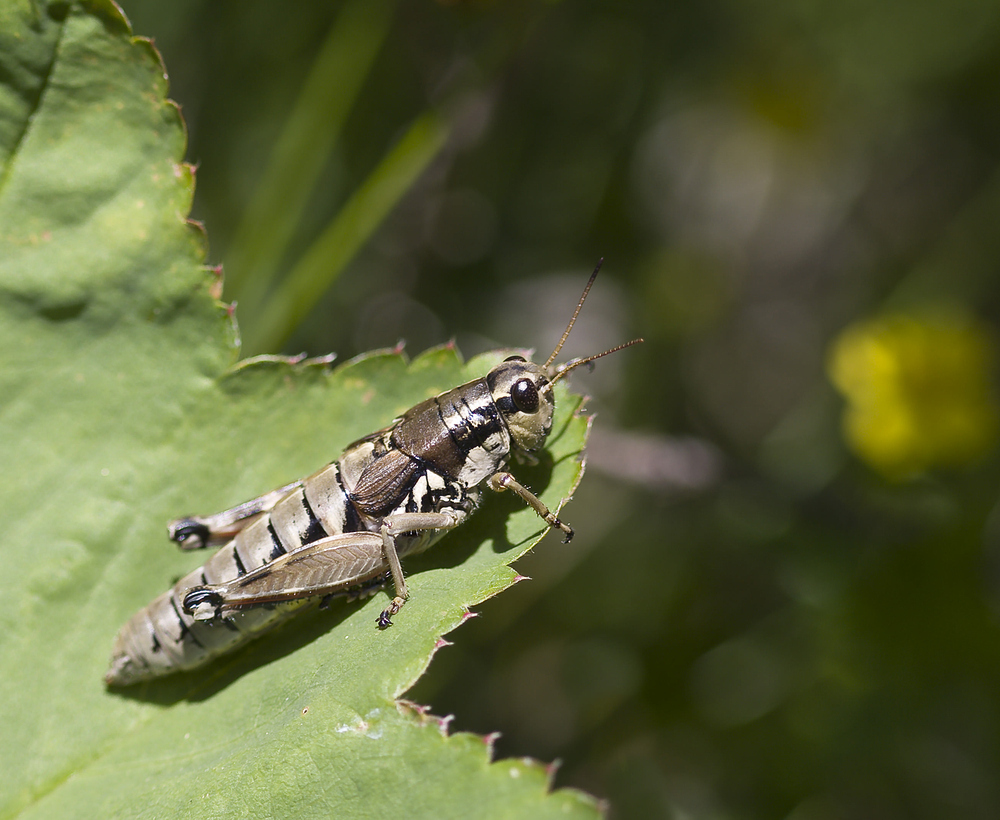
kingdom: Animalia
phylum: Arthropoda
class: Insecta
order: Orthoptera
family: Acrididae
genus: Podisma
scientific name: Podisma pedestris
